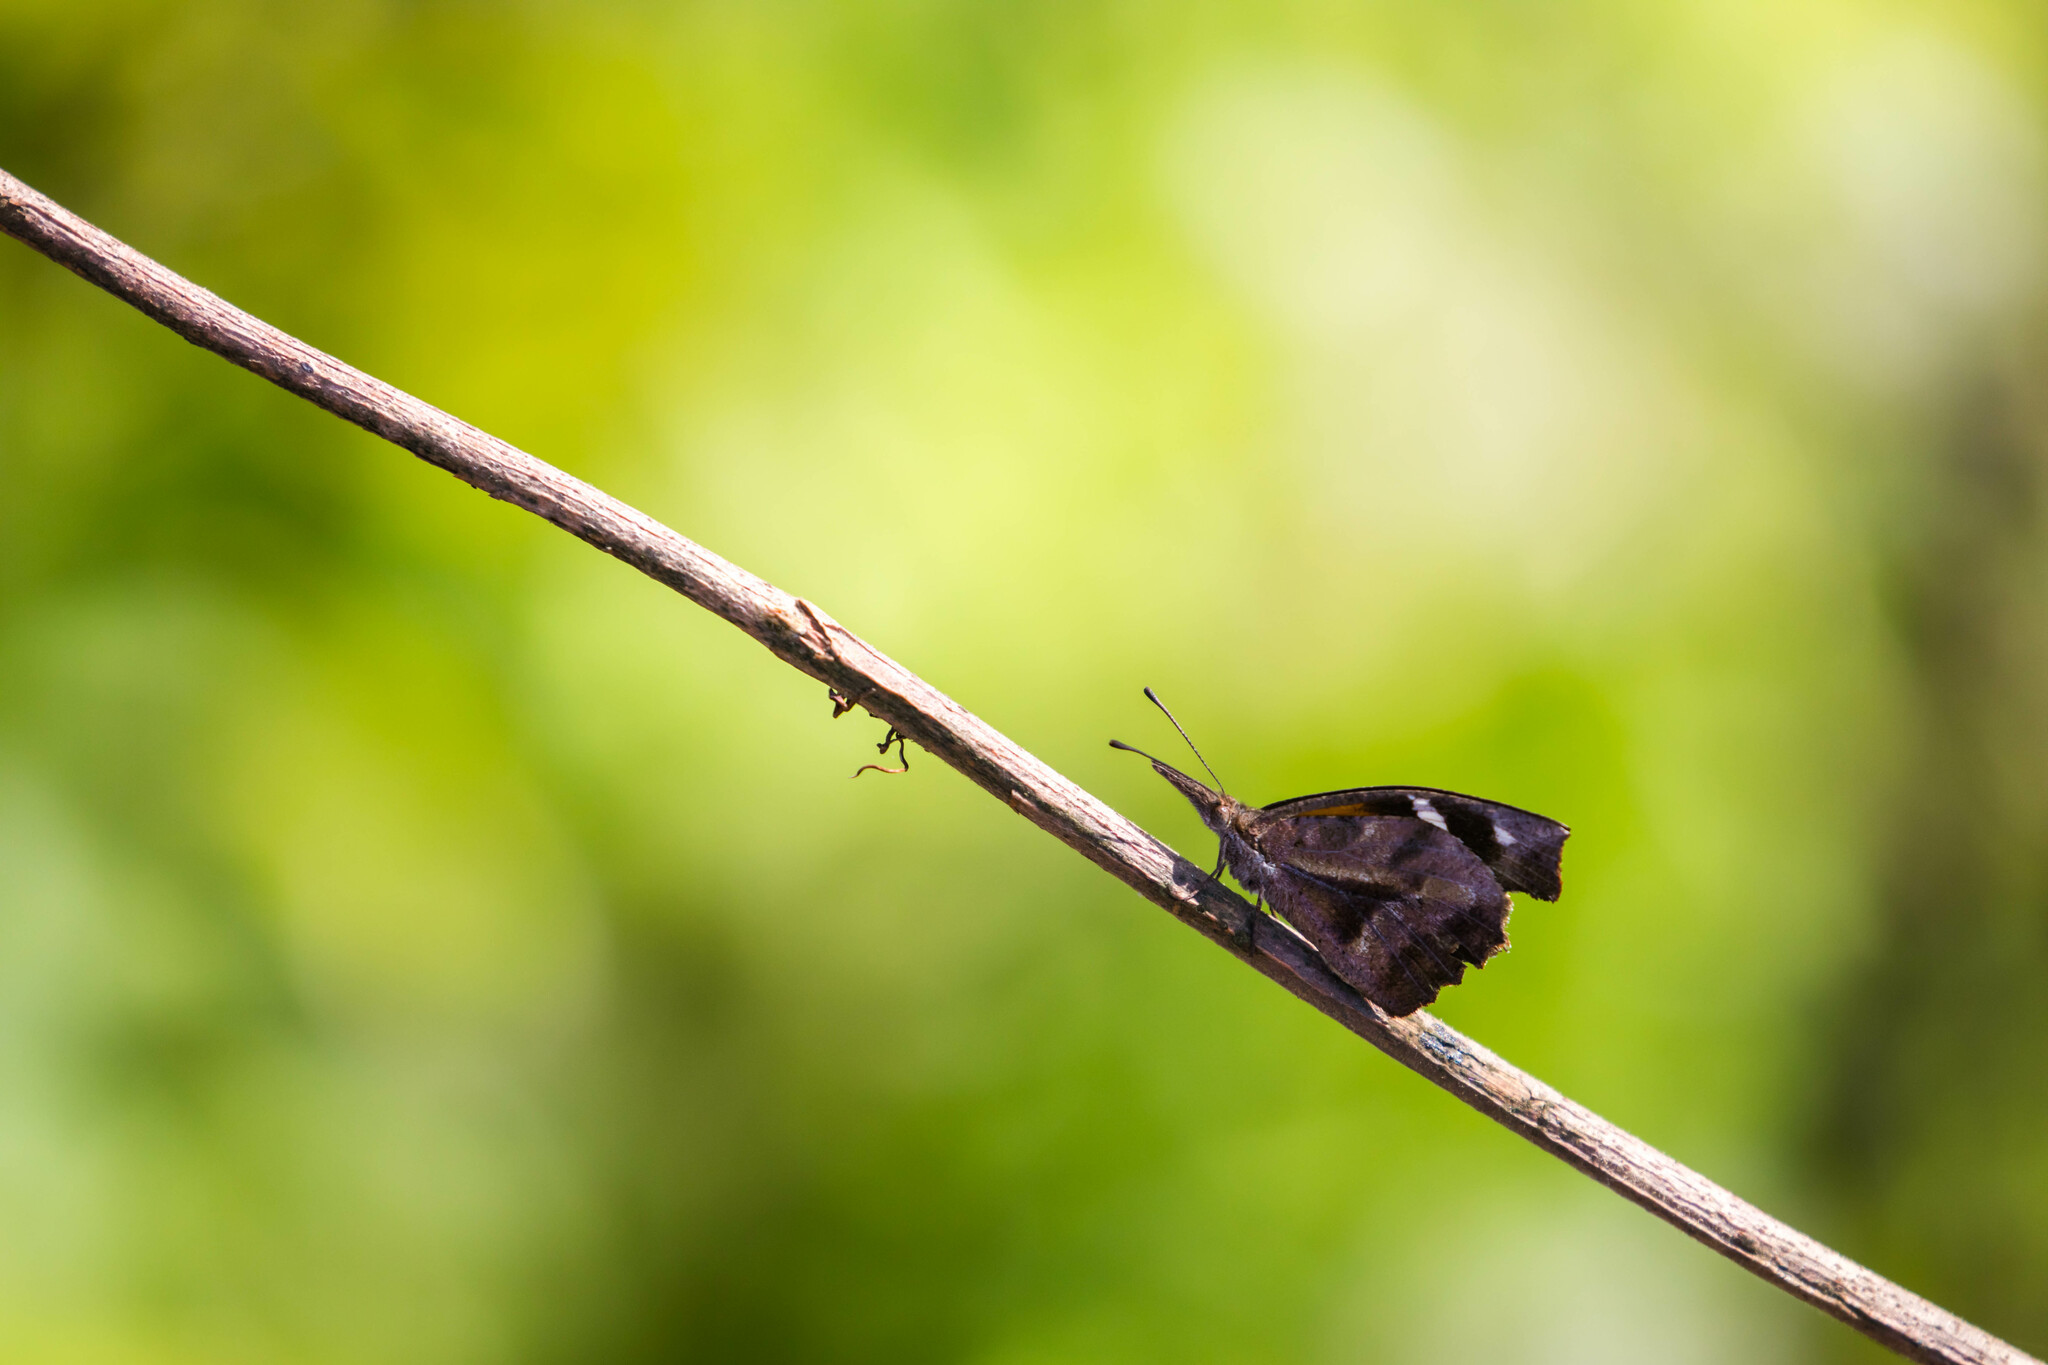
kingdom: Animalia
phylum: Arthropoda
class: Insecta
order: Lepidoptera
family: Nymphalidae
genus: Libytheana
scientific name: Libytheana carinenta
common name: American snout
